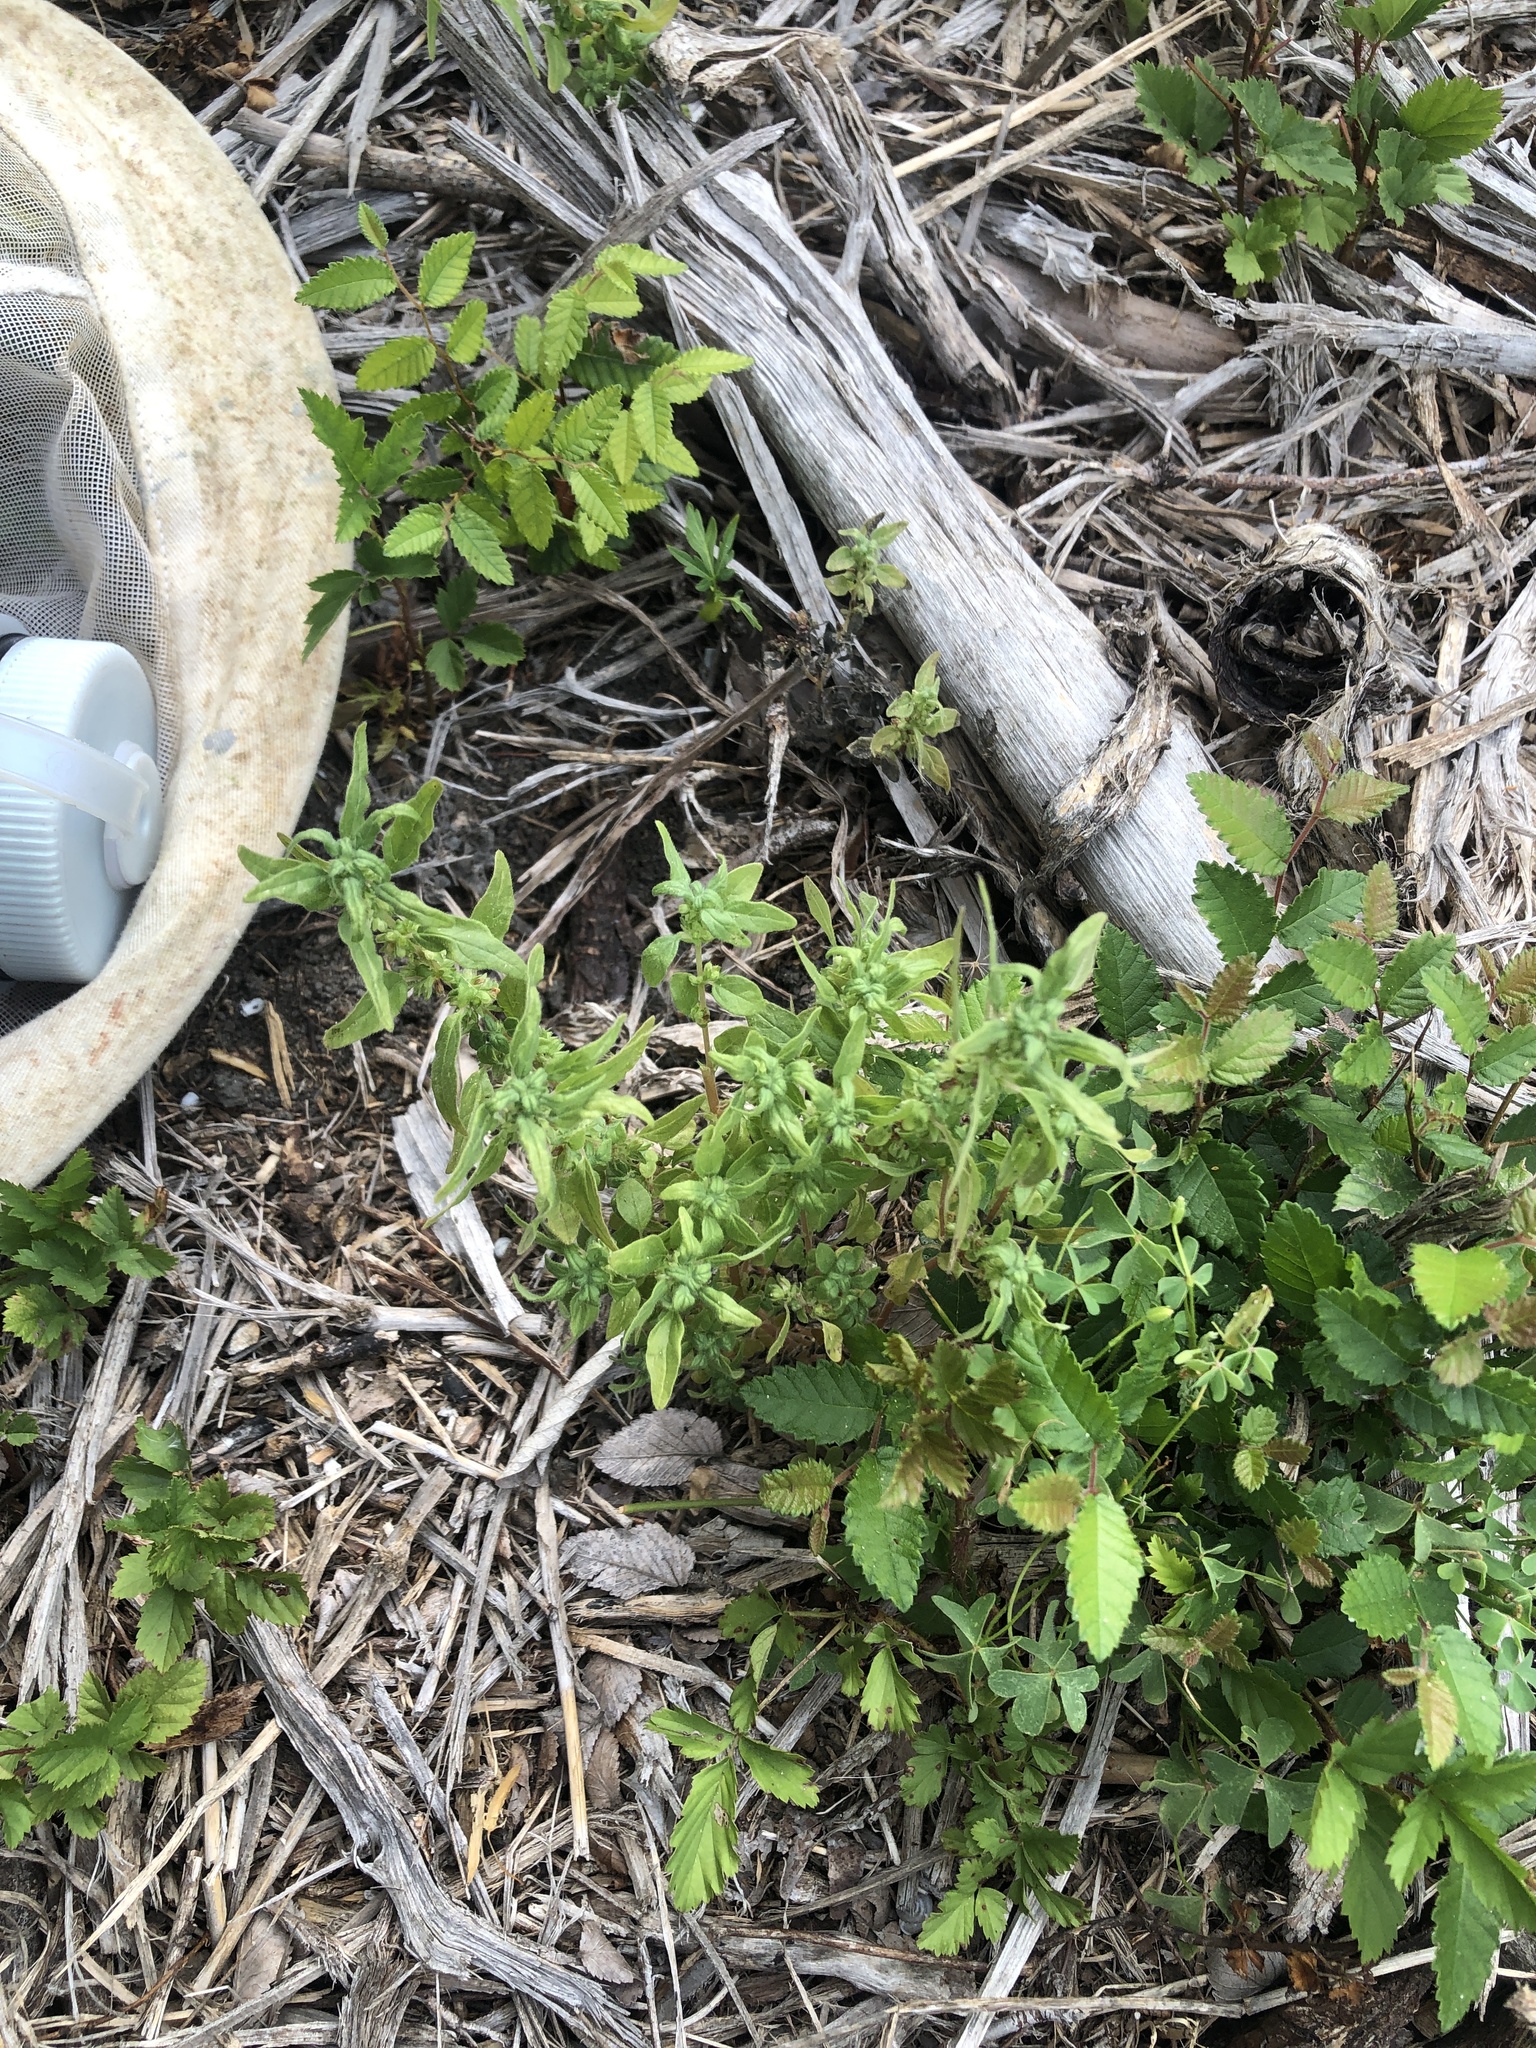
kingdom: Plantae
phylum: Tracheophyta
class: Magnoliopsida
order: Rosales
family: Urticaceae
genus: Parietaria
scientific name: Parietaria pensylvanica
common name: Pennsylvania pellitory
